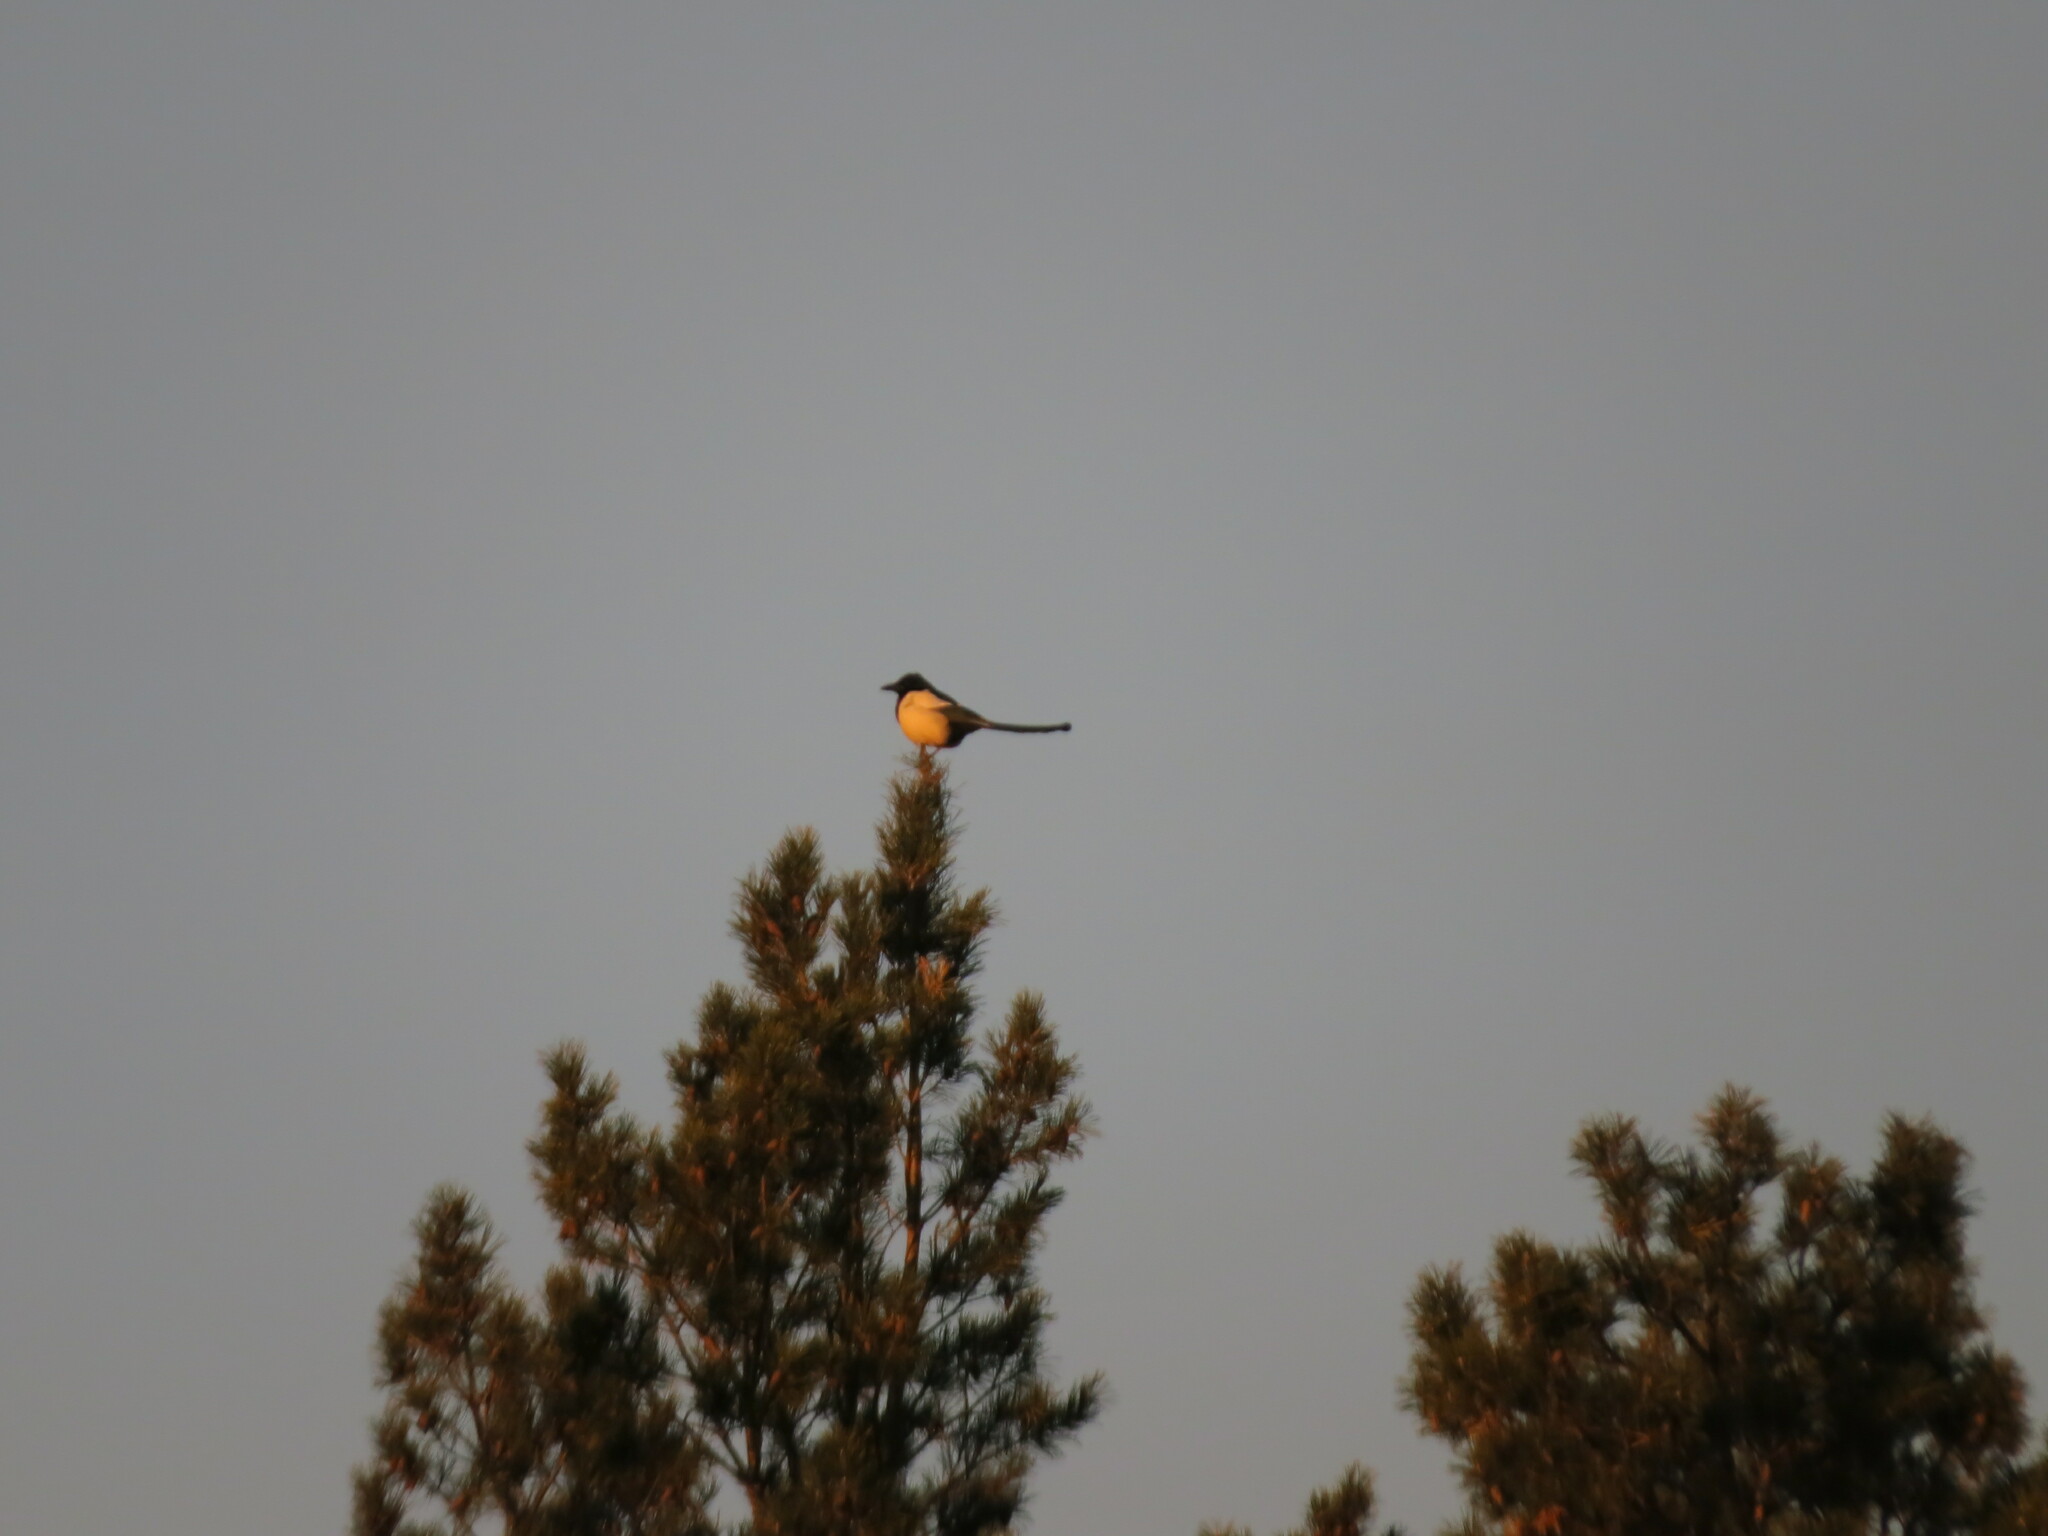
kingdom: Animalia
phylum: Chordata
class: Aves
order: Passeriformes
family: Corvidae
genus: Pica
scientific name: Pica pica
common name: Eurasian magpie
